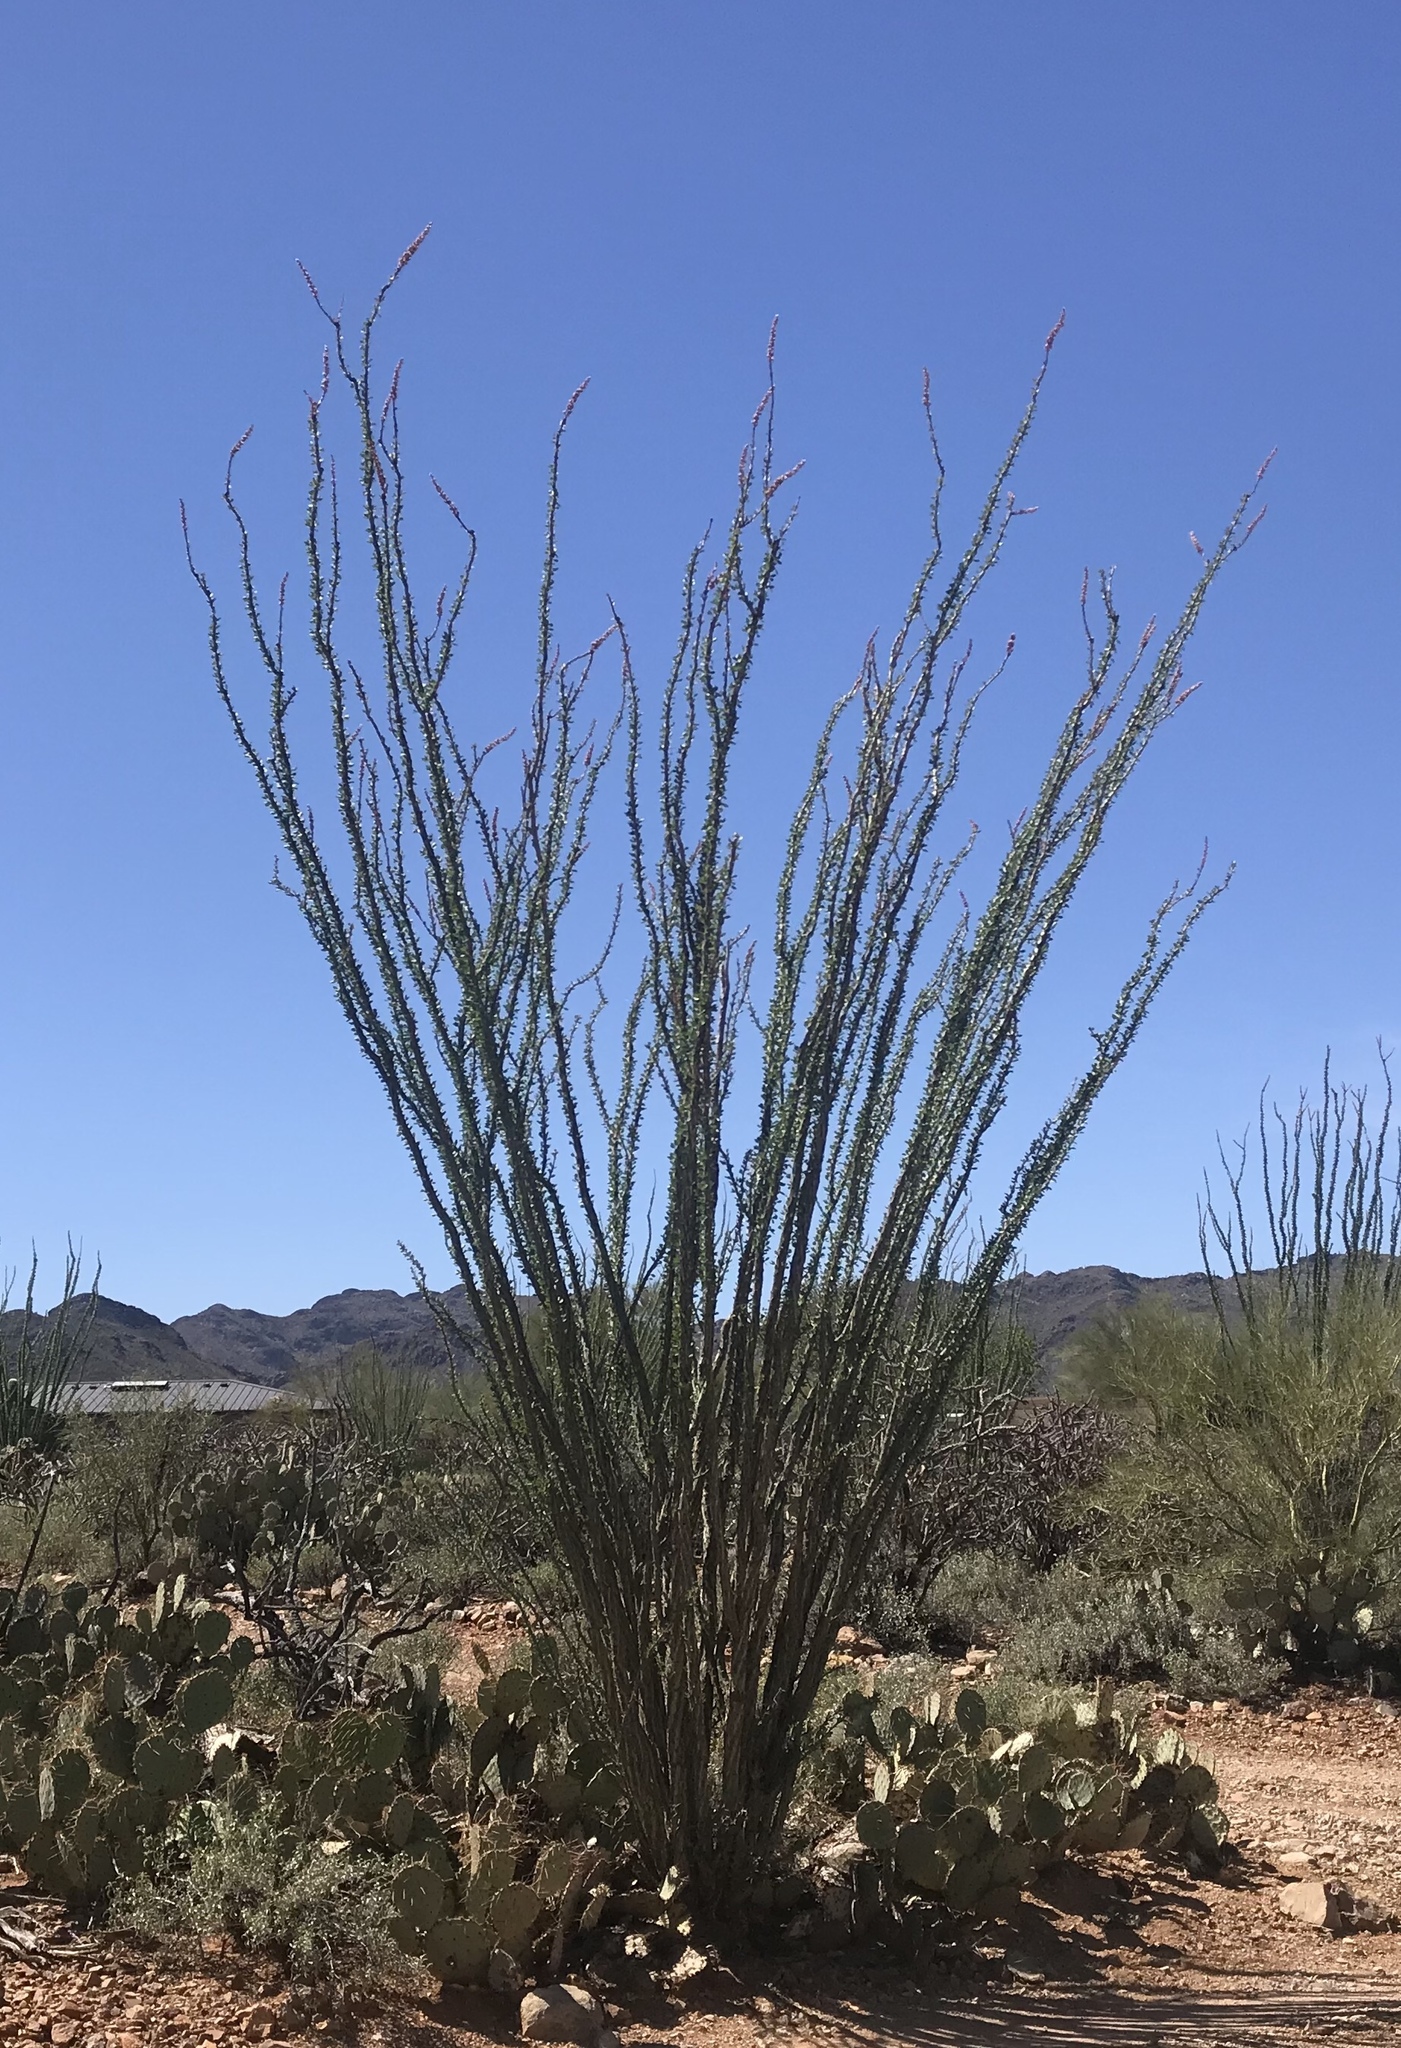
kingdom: Plantae
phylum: Tracheophyta
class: Magnoliopsida
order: Ericales
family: Fouquieriaceae
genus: Fouquieria
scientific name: Fouquieria splendens
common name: Vine-cactus
